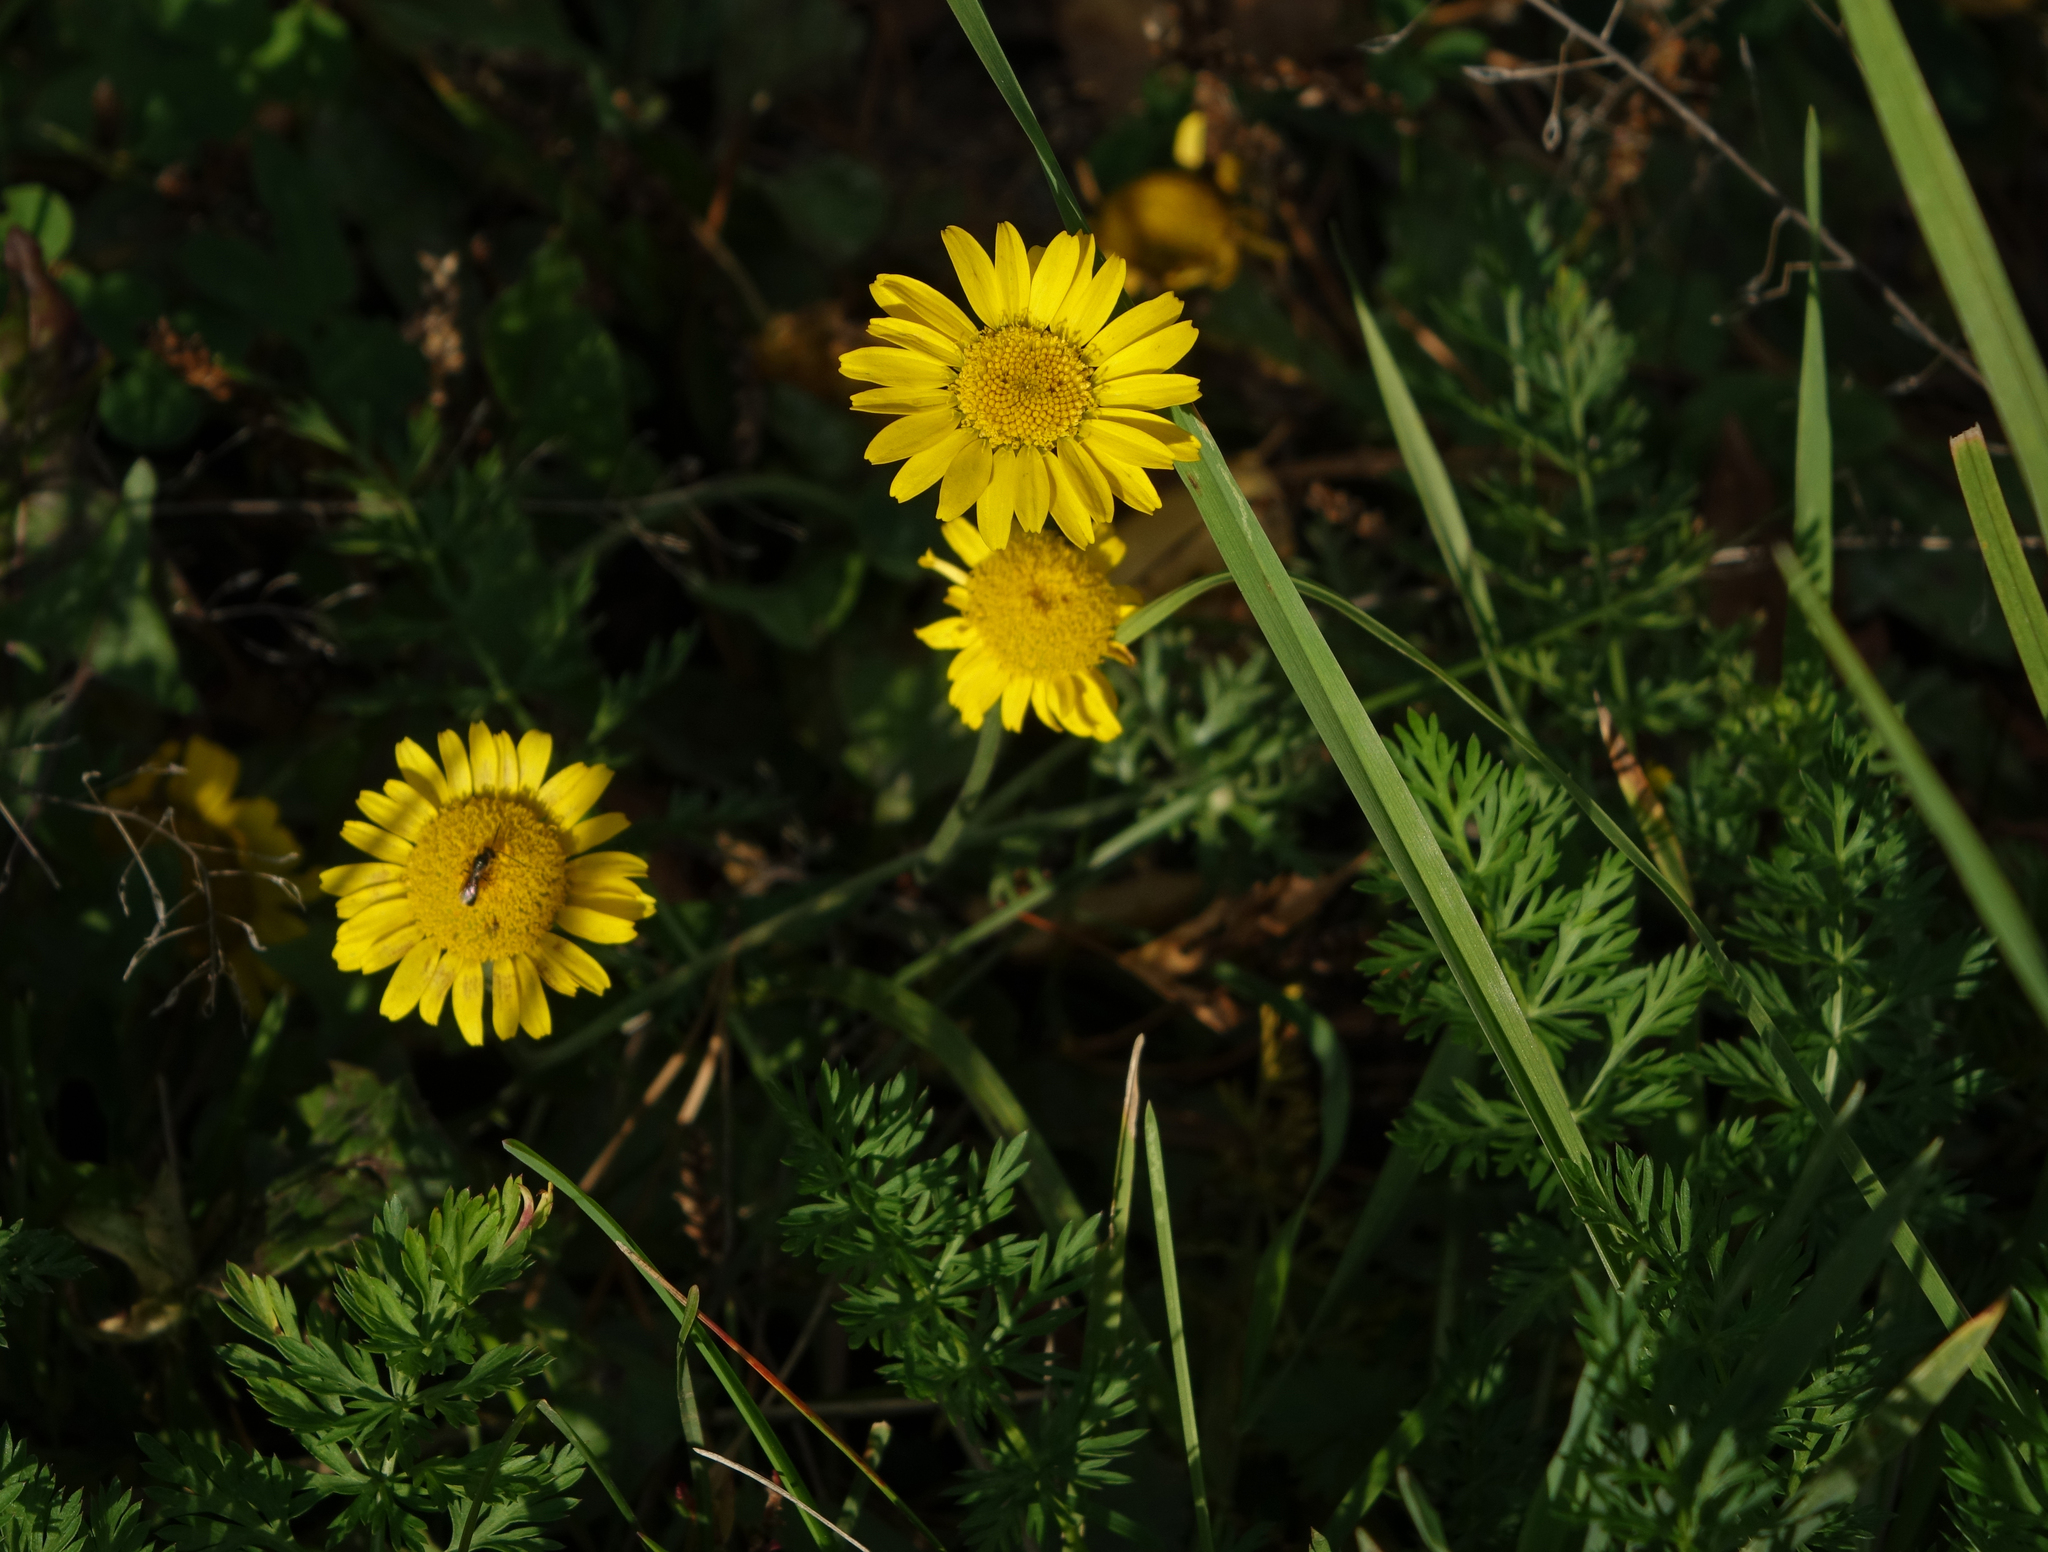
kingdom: Plantae
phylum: Tracheophyta
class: Magnoliopsida
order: Asterales
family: Asteraceae
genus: Cota
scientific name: Cota tinctoria
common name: Golden chamomile
